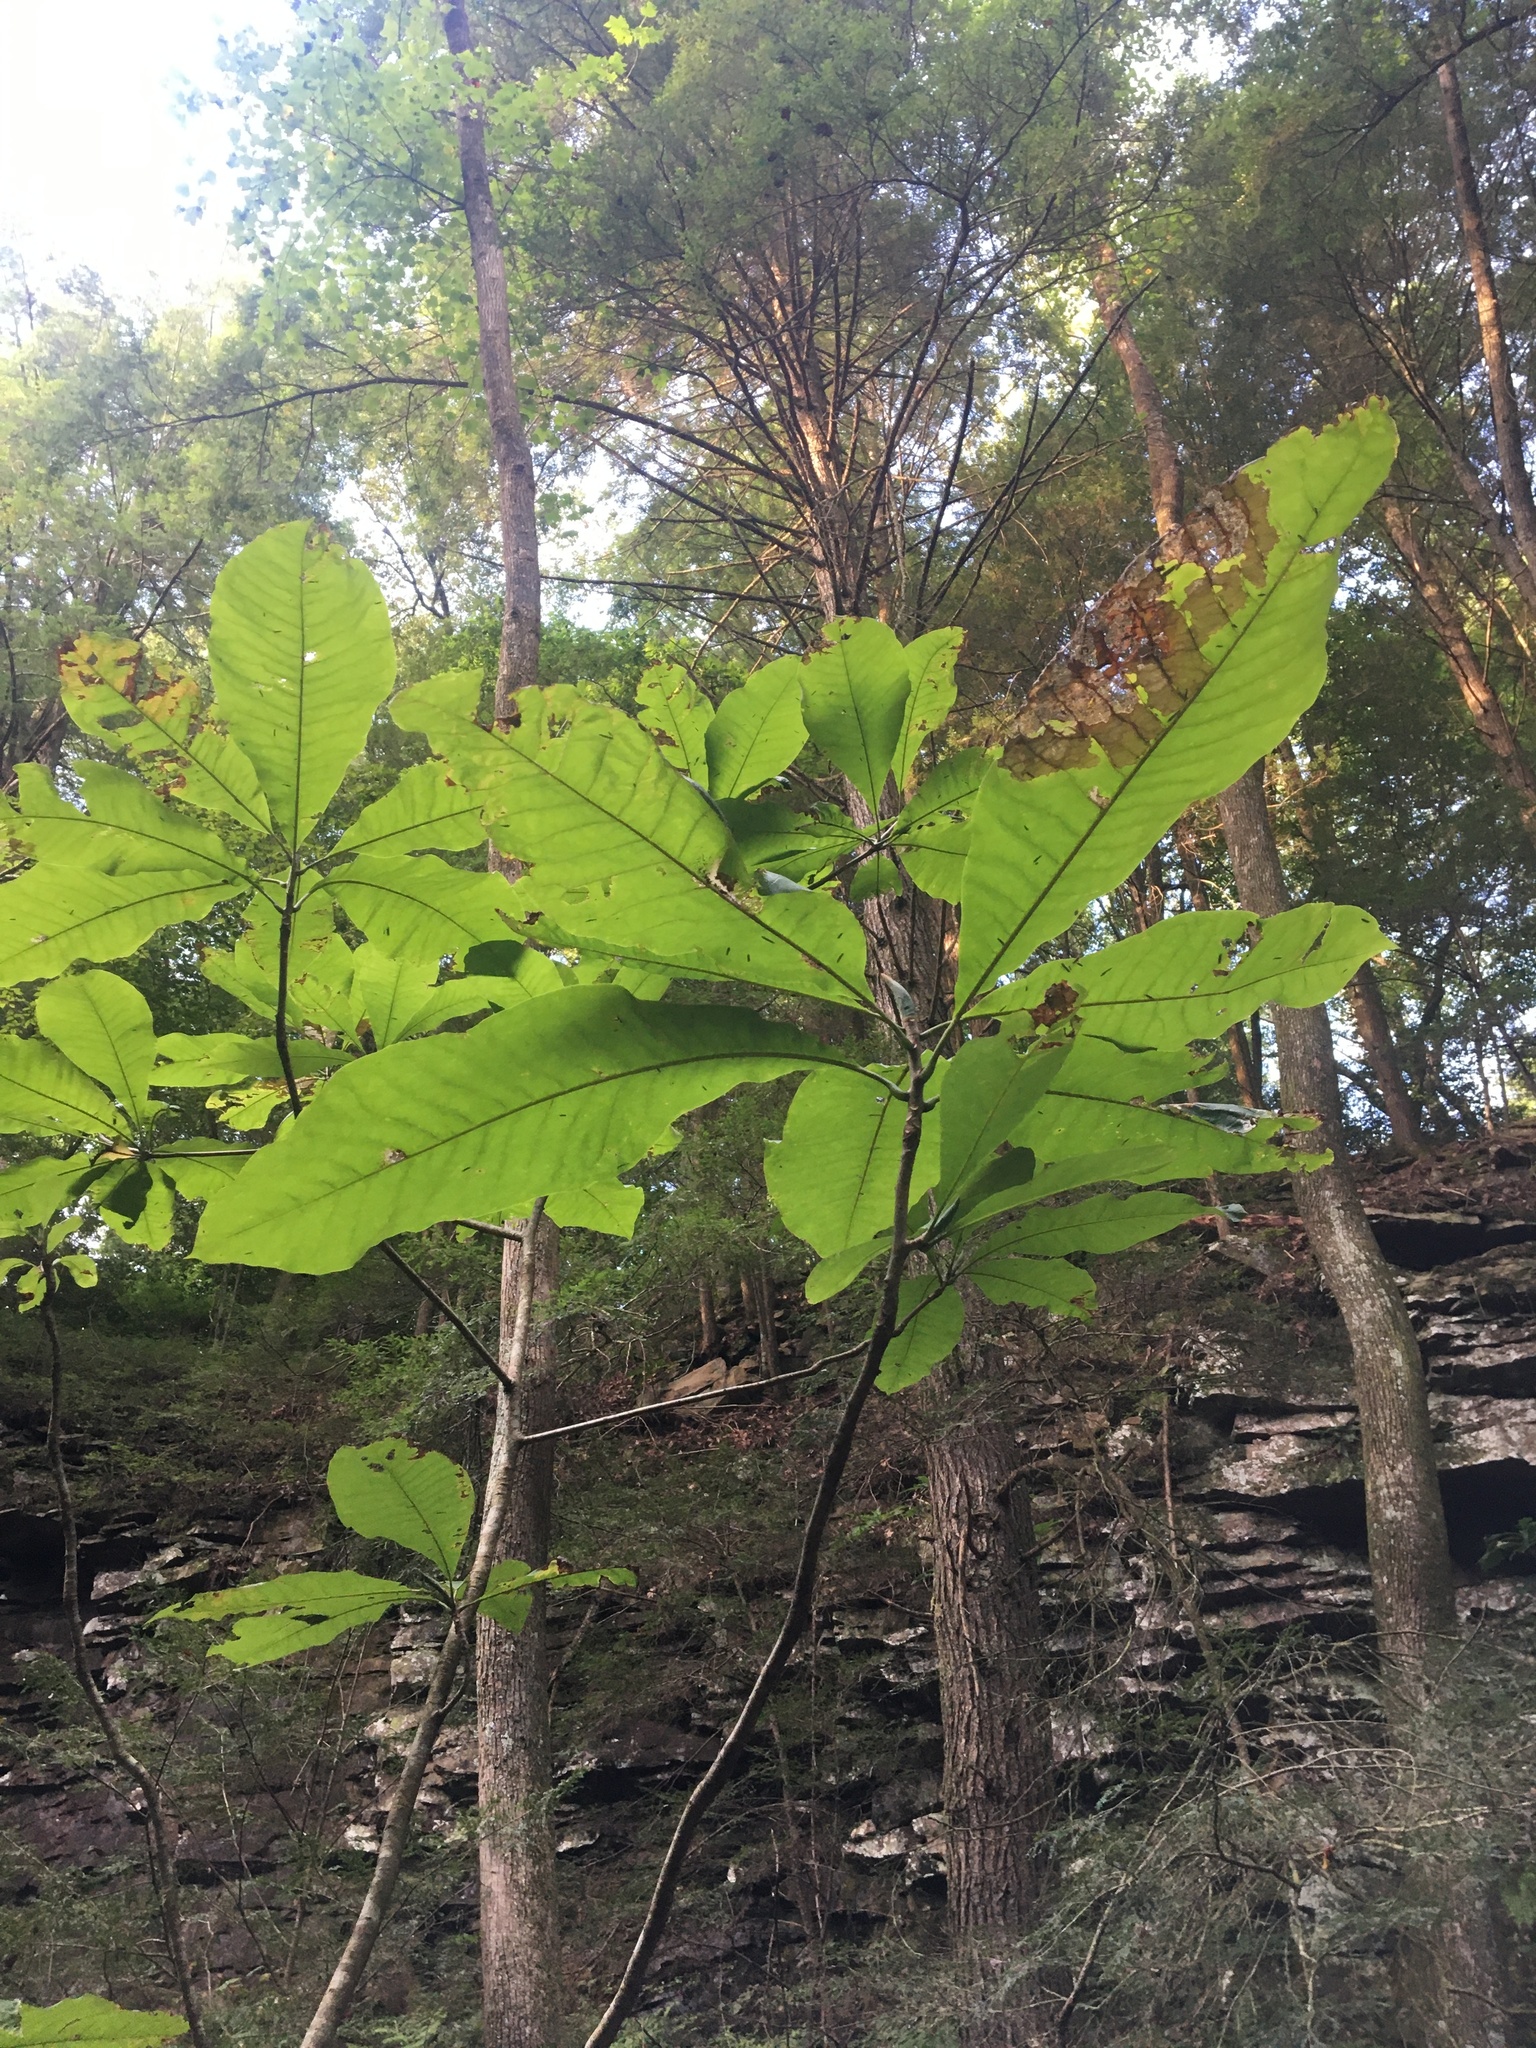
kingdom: Plantae
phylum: Tracheophyta
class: Magnoliopsida
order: Magnoliales
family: Magnoliaceae
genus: Magnolia
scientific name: Magnolia tripetala
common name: Umbrella magnolia
